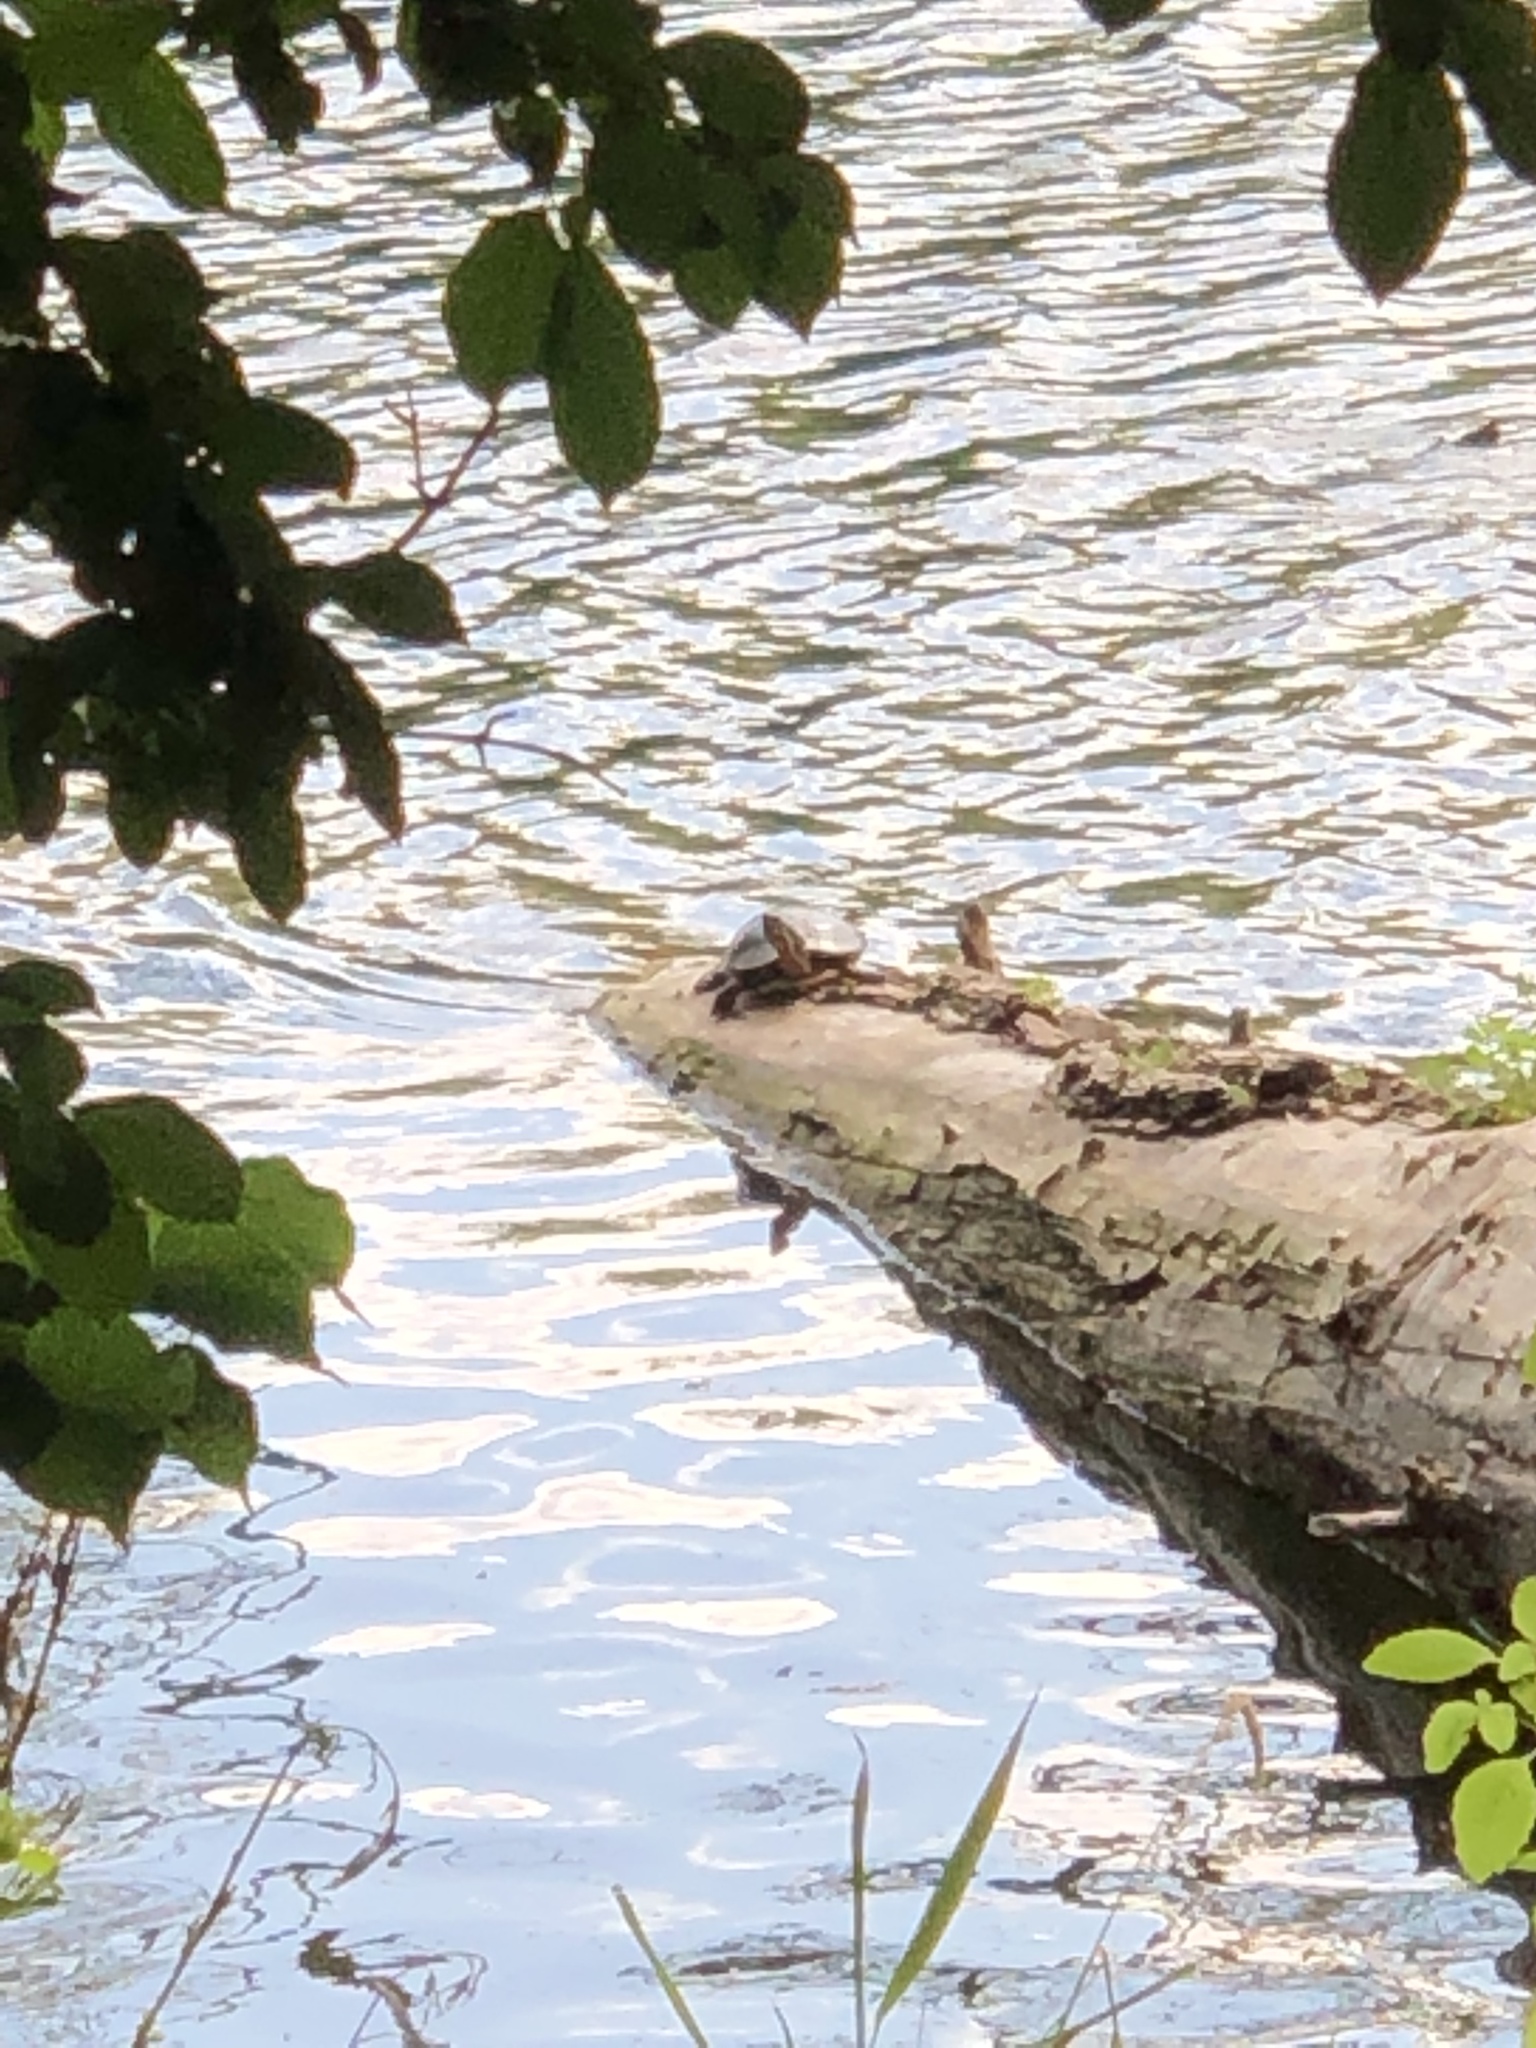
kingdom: Animalia
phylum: Chordata
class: Testudines
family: Emydidae
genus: Chrysemys
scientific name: Chrysemys picta
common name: Painted turtle
